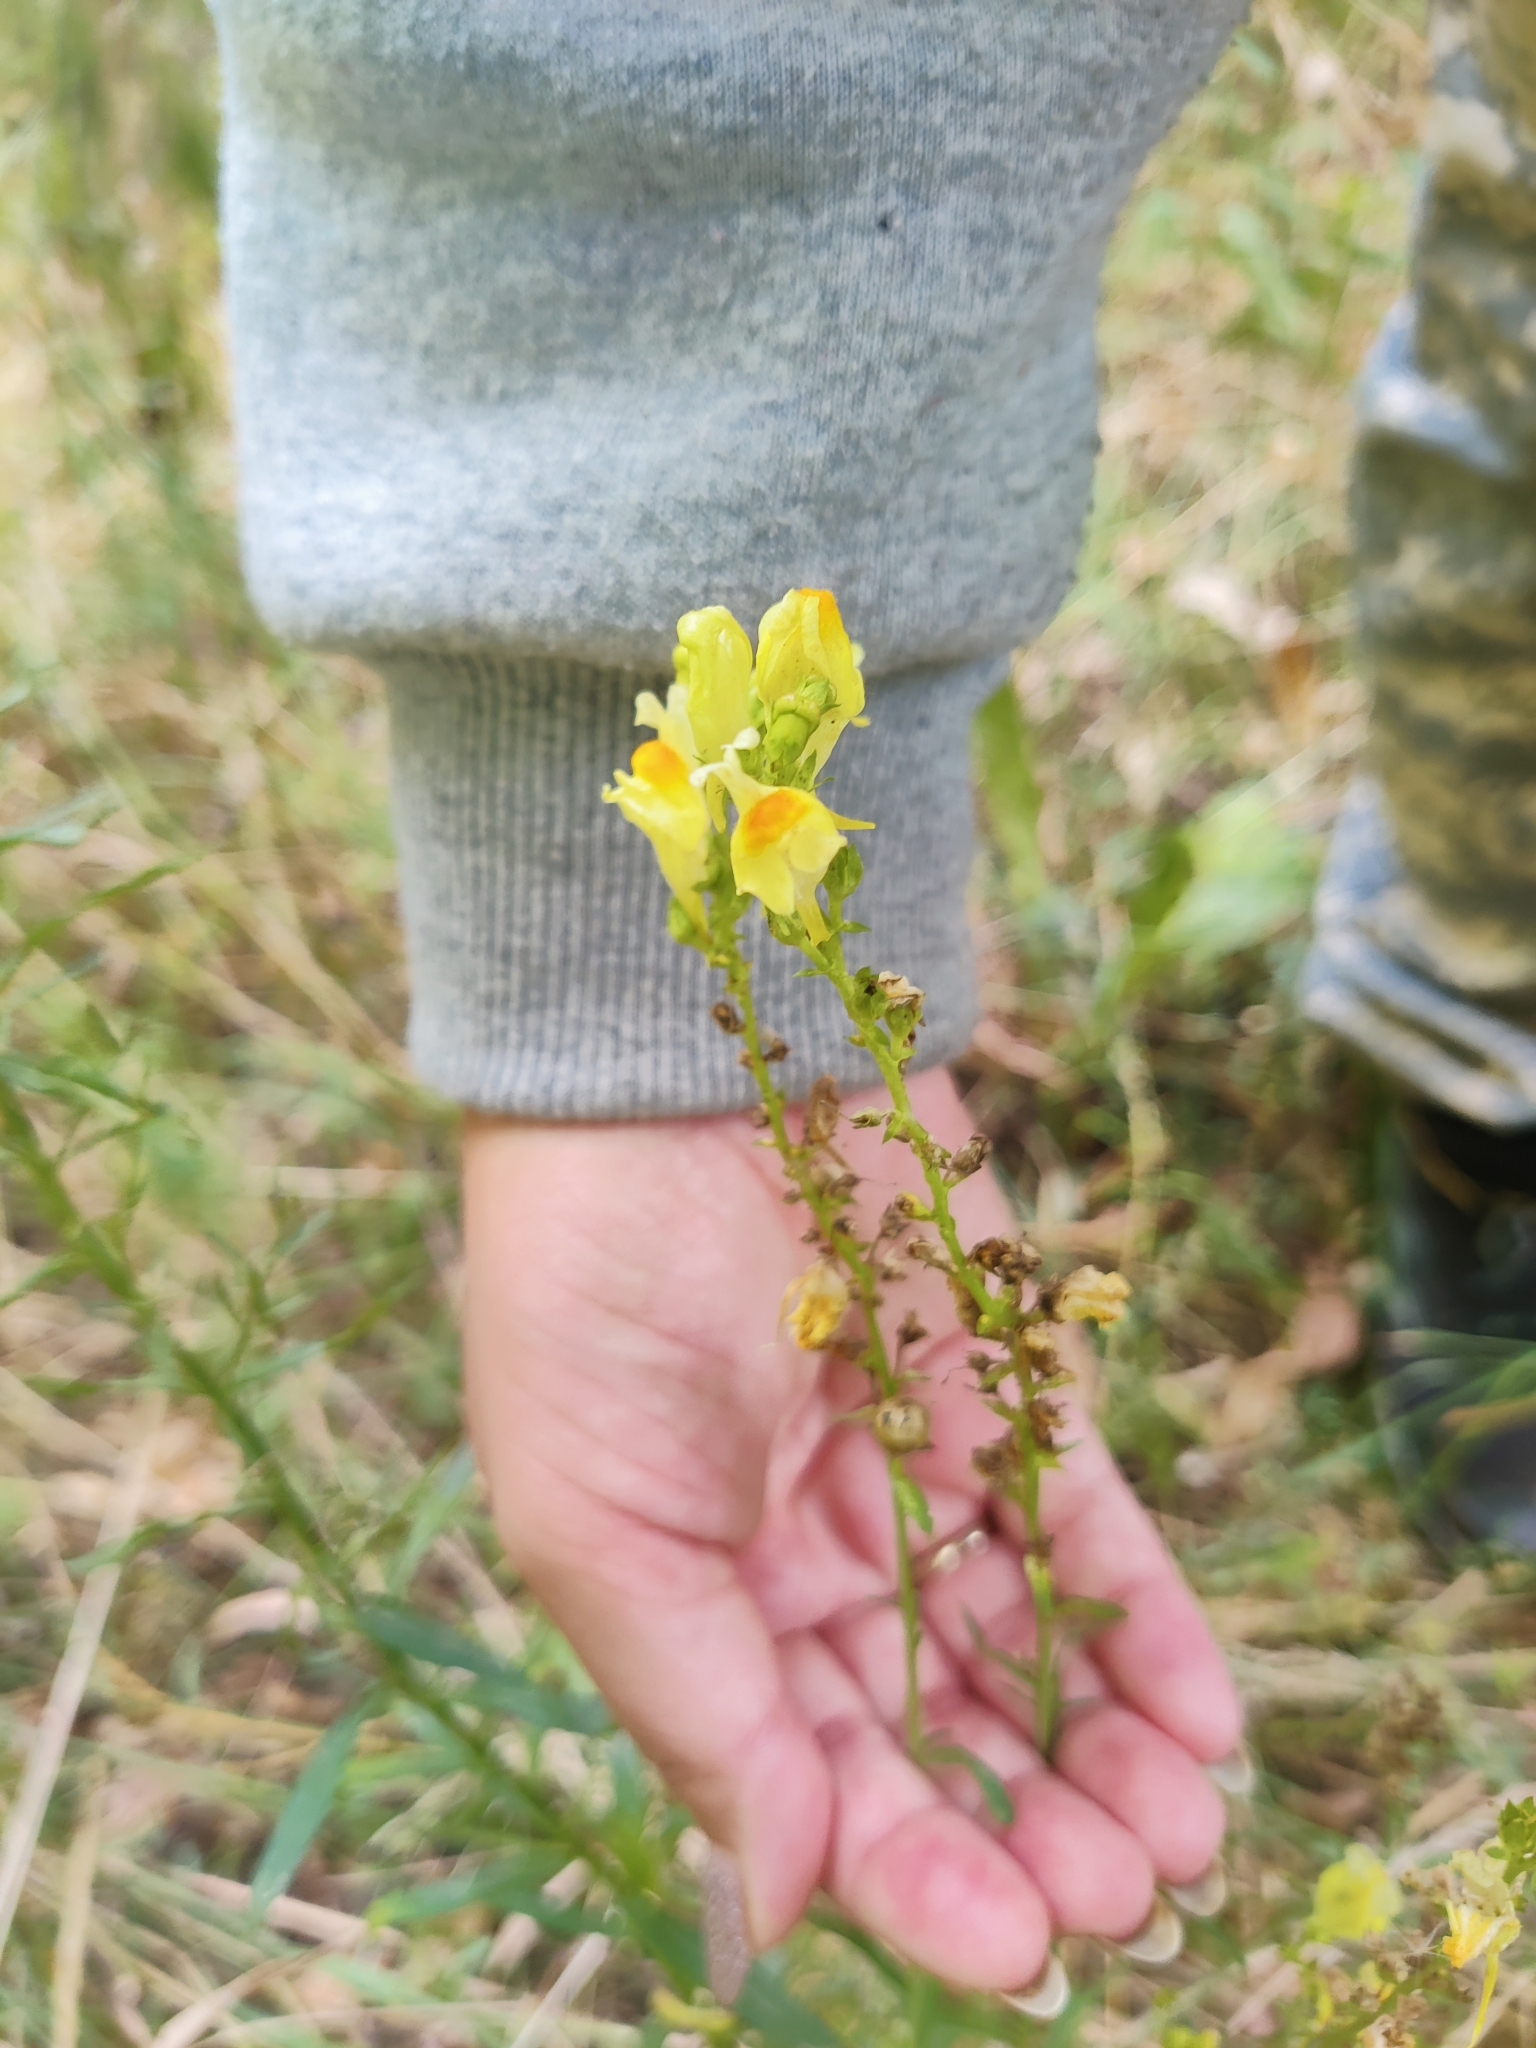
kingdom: Plantae
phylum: Tracheophyta
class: Magnoliopsida
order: Lamiales
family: Plantaginaceae
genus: Linaria
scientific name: Linaria vulgaris
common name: Butter and eggs
